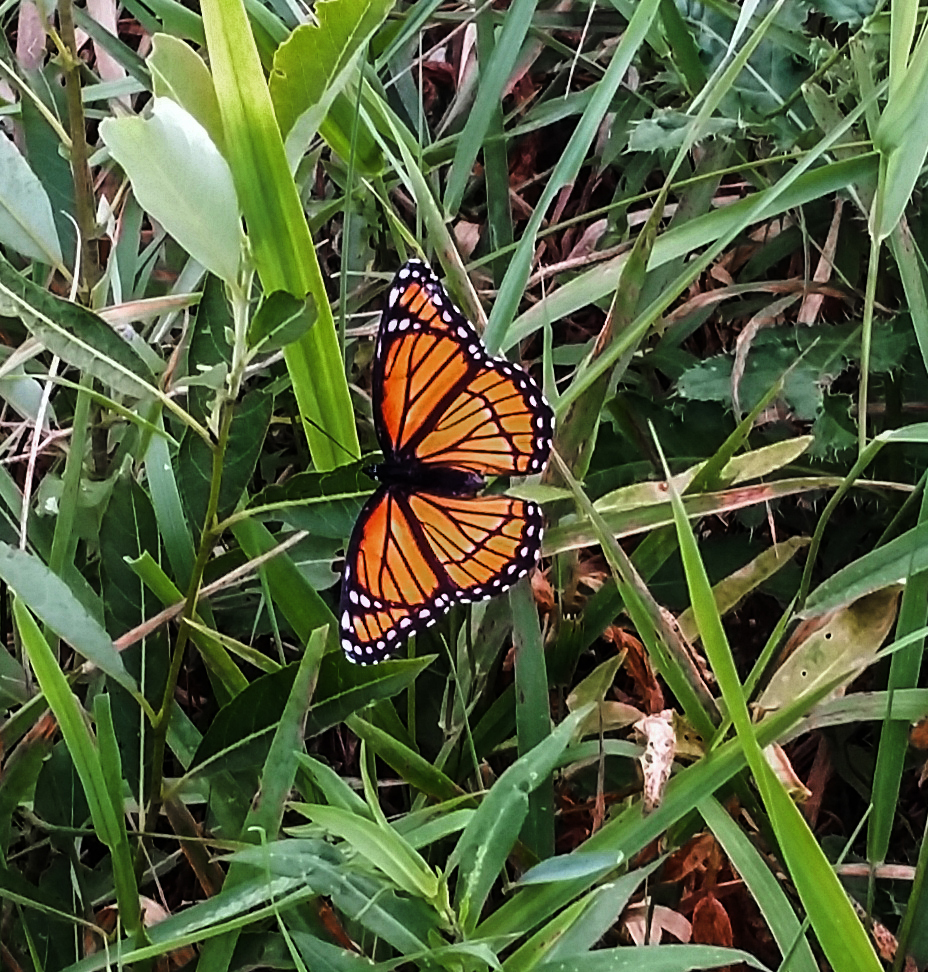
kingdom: Animalia
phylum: Arthropoda
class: Insecta
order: Lepidoptera
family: Nymphalidae
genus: Limenitis
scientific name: Limenitis archippus
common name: Viceroy
